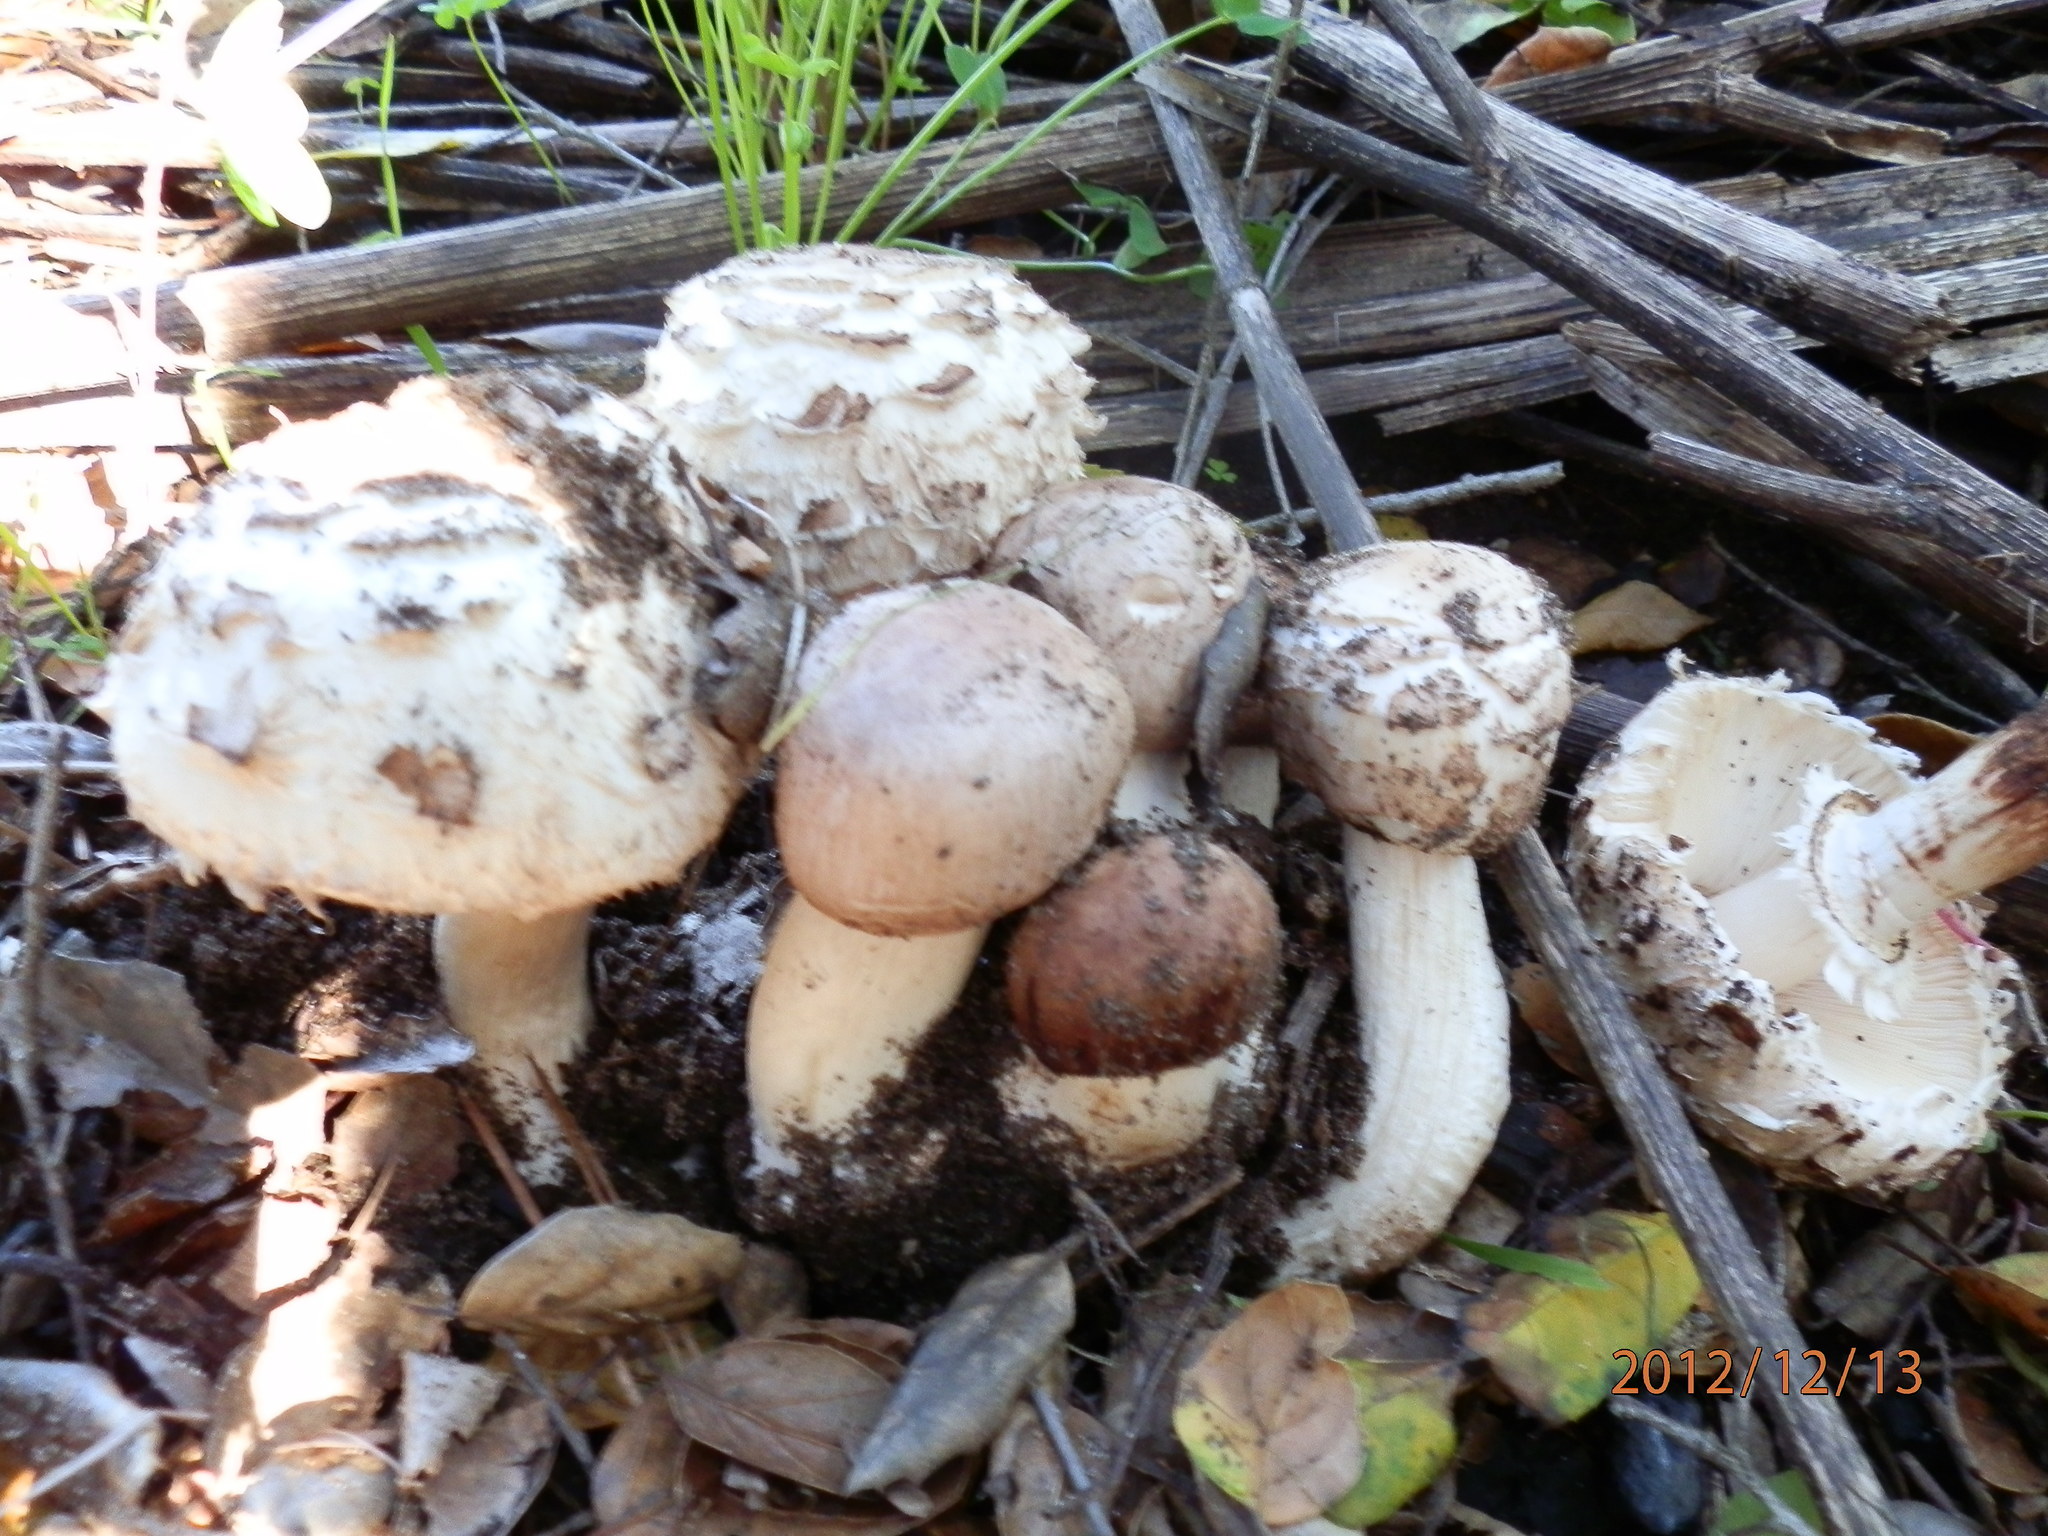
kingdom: Fungi
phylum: Basidiomycota
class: Agaricomycetes
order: Agaricales
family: Agaricaceae
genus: Chlorophyllum
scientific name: Chlorophyllum brunneum
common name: Brown parasol
